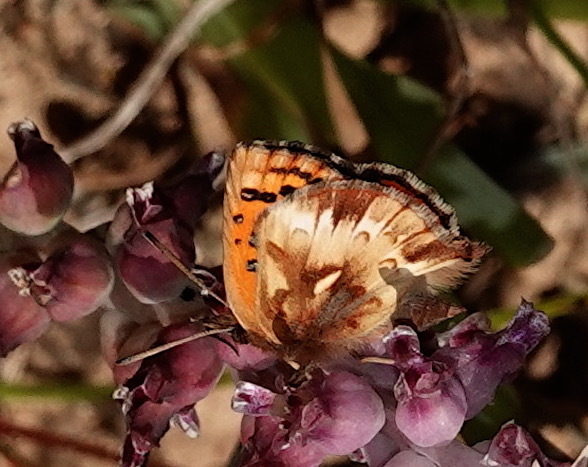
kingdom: Animalia
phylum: Arthropoda
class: Insecta
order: Lepidoptera
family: Lycaenidae
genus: Chrysoritis
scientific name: Chrysoritis
